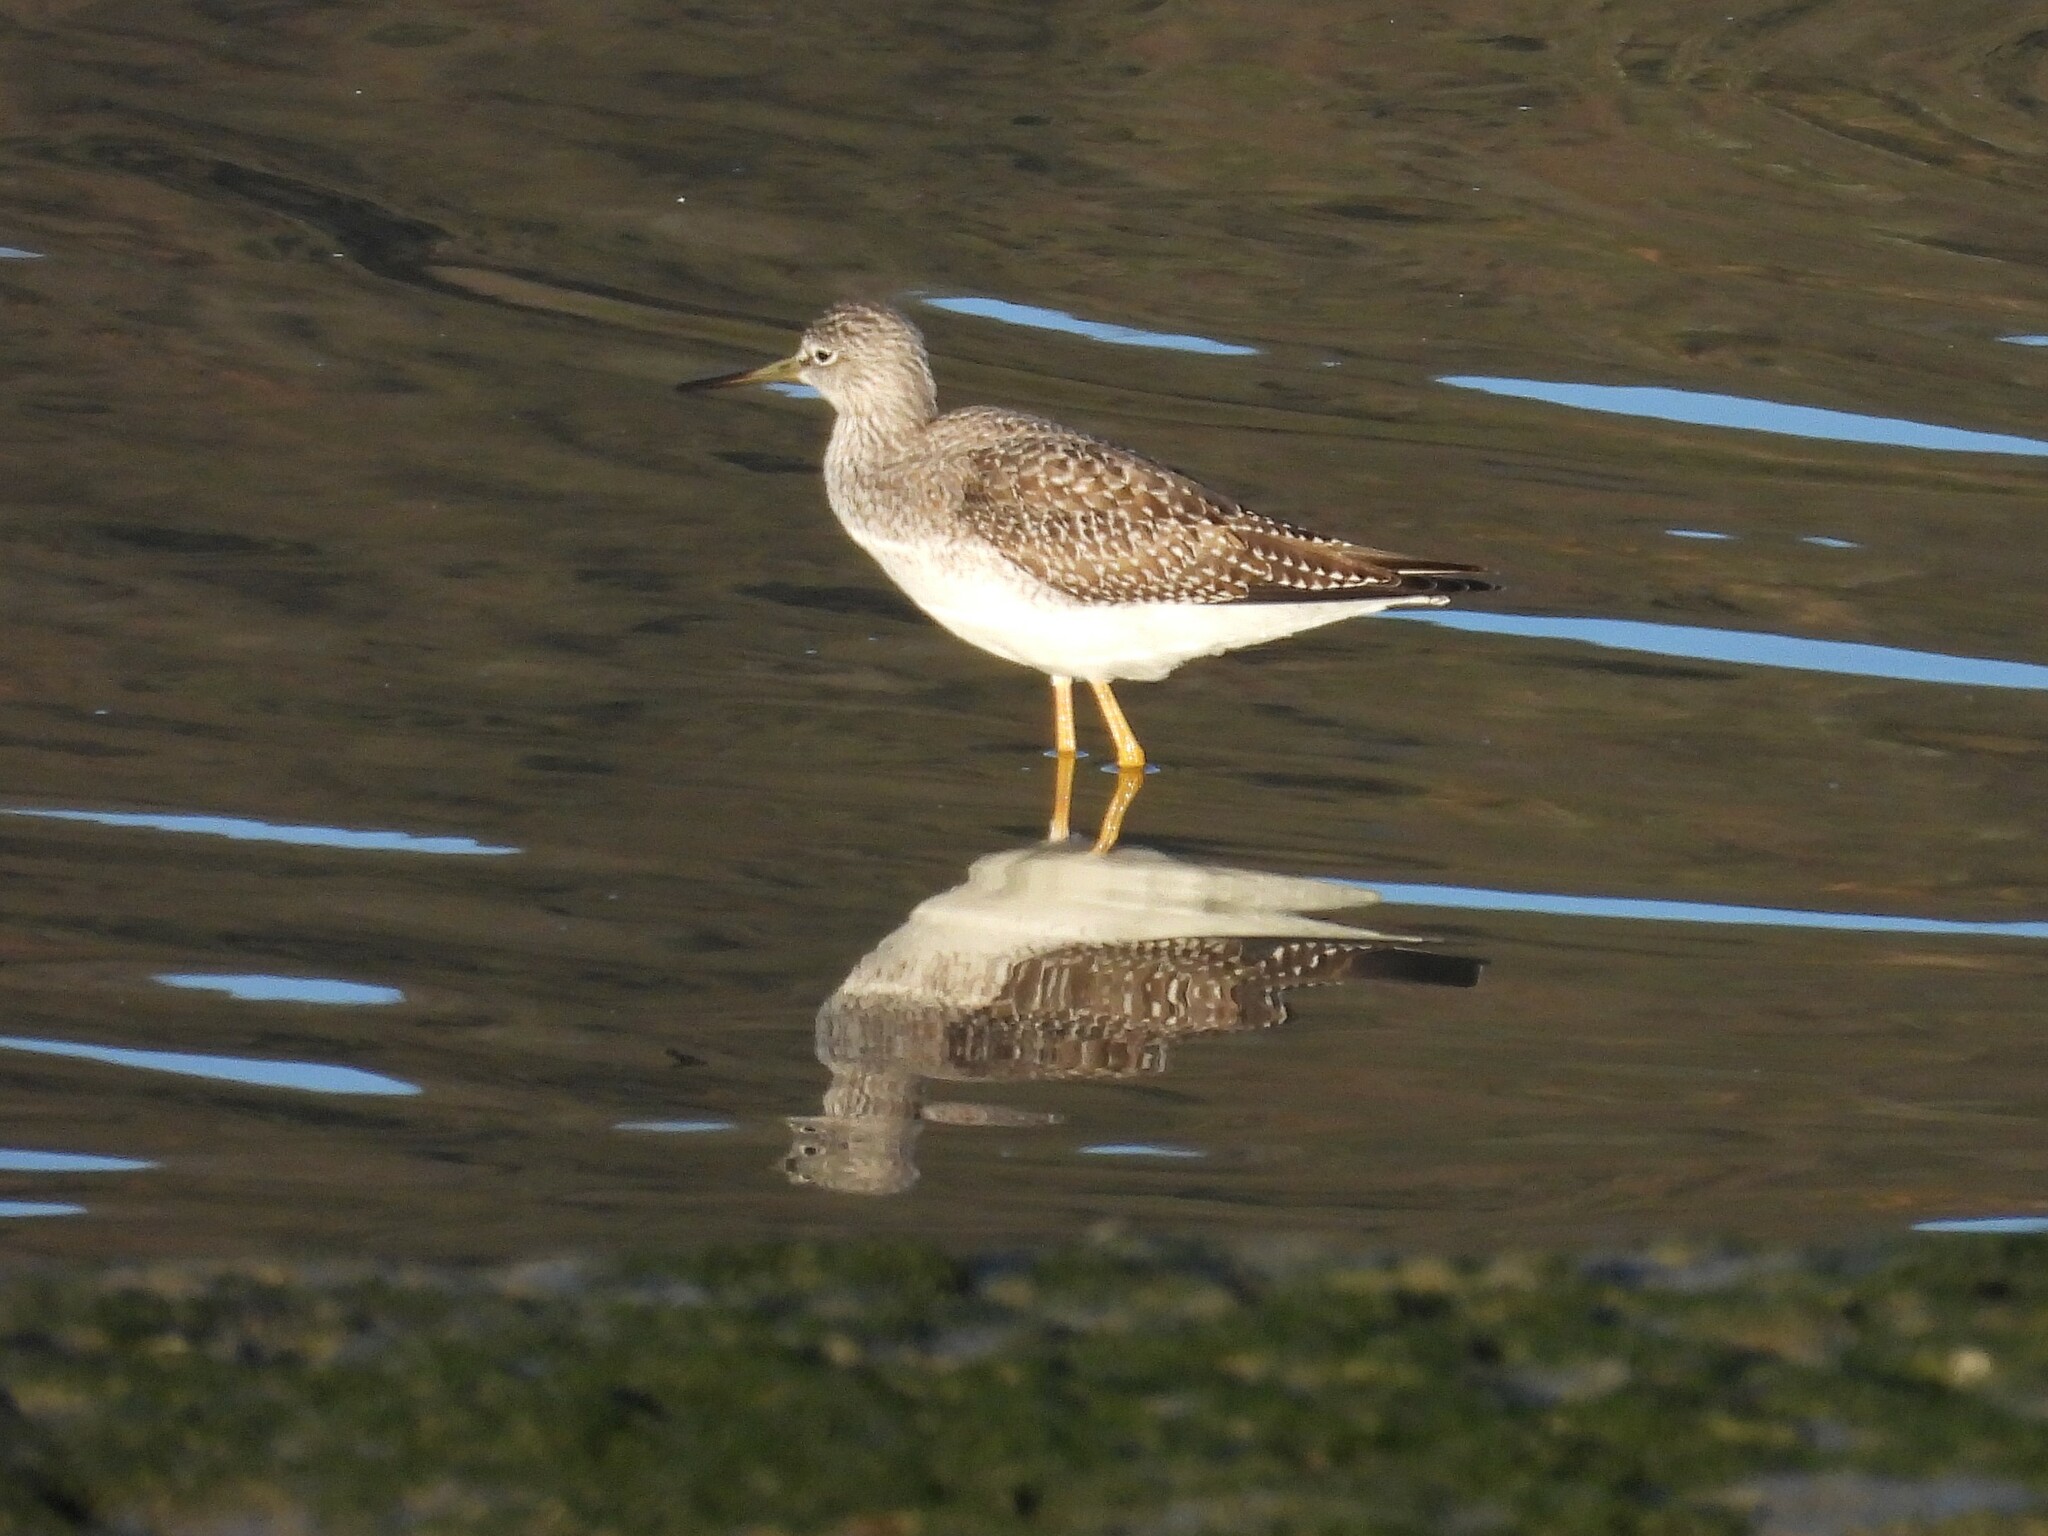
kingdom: Animalia
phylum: Chordata
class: Aves
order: Charadriiformes
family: Scolopacidae
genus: Tringa
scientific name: Tringa melanoleuca
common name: Greater yellowlegs
